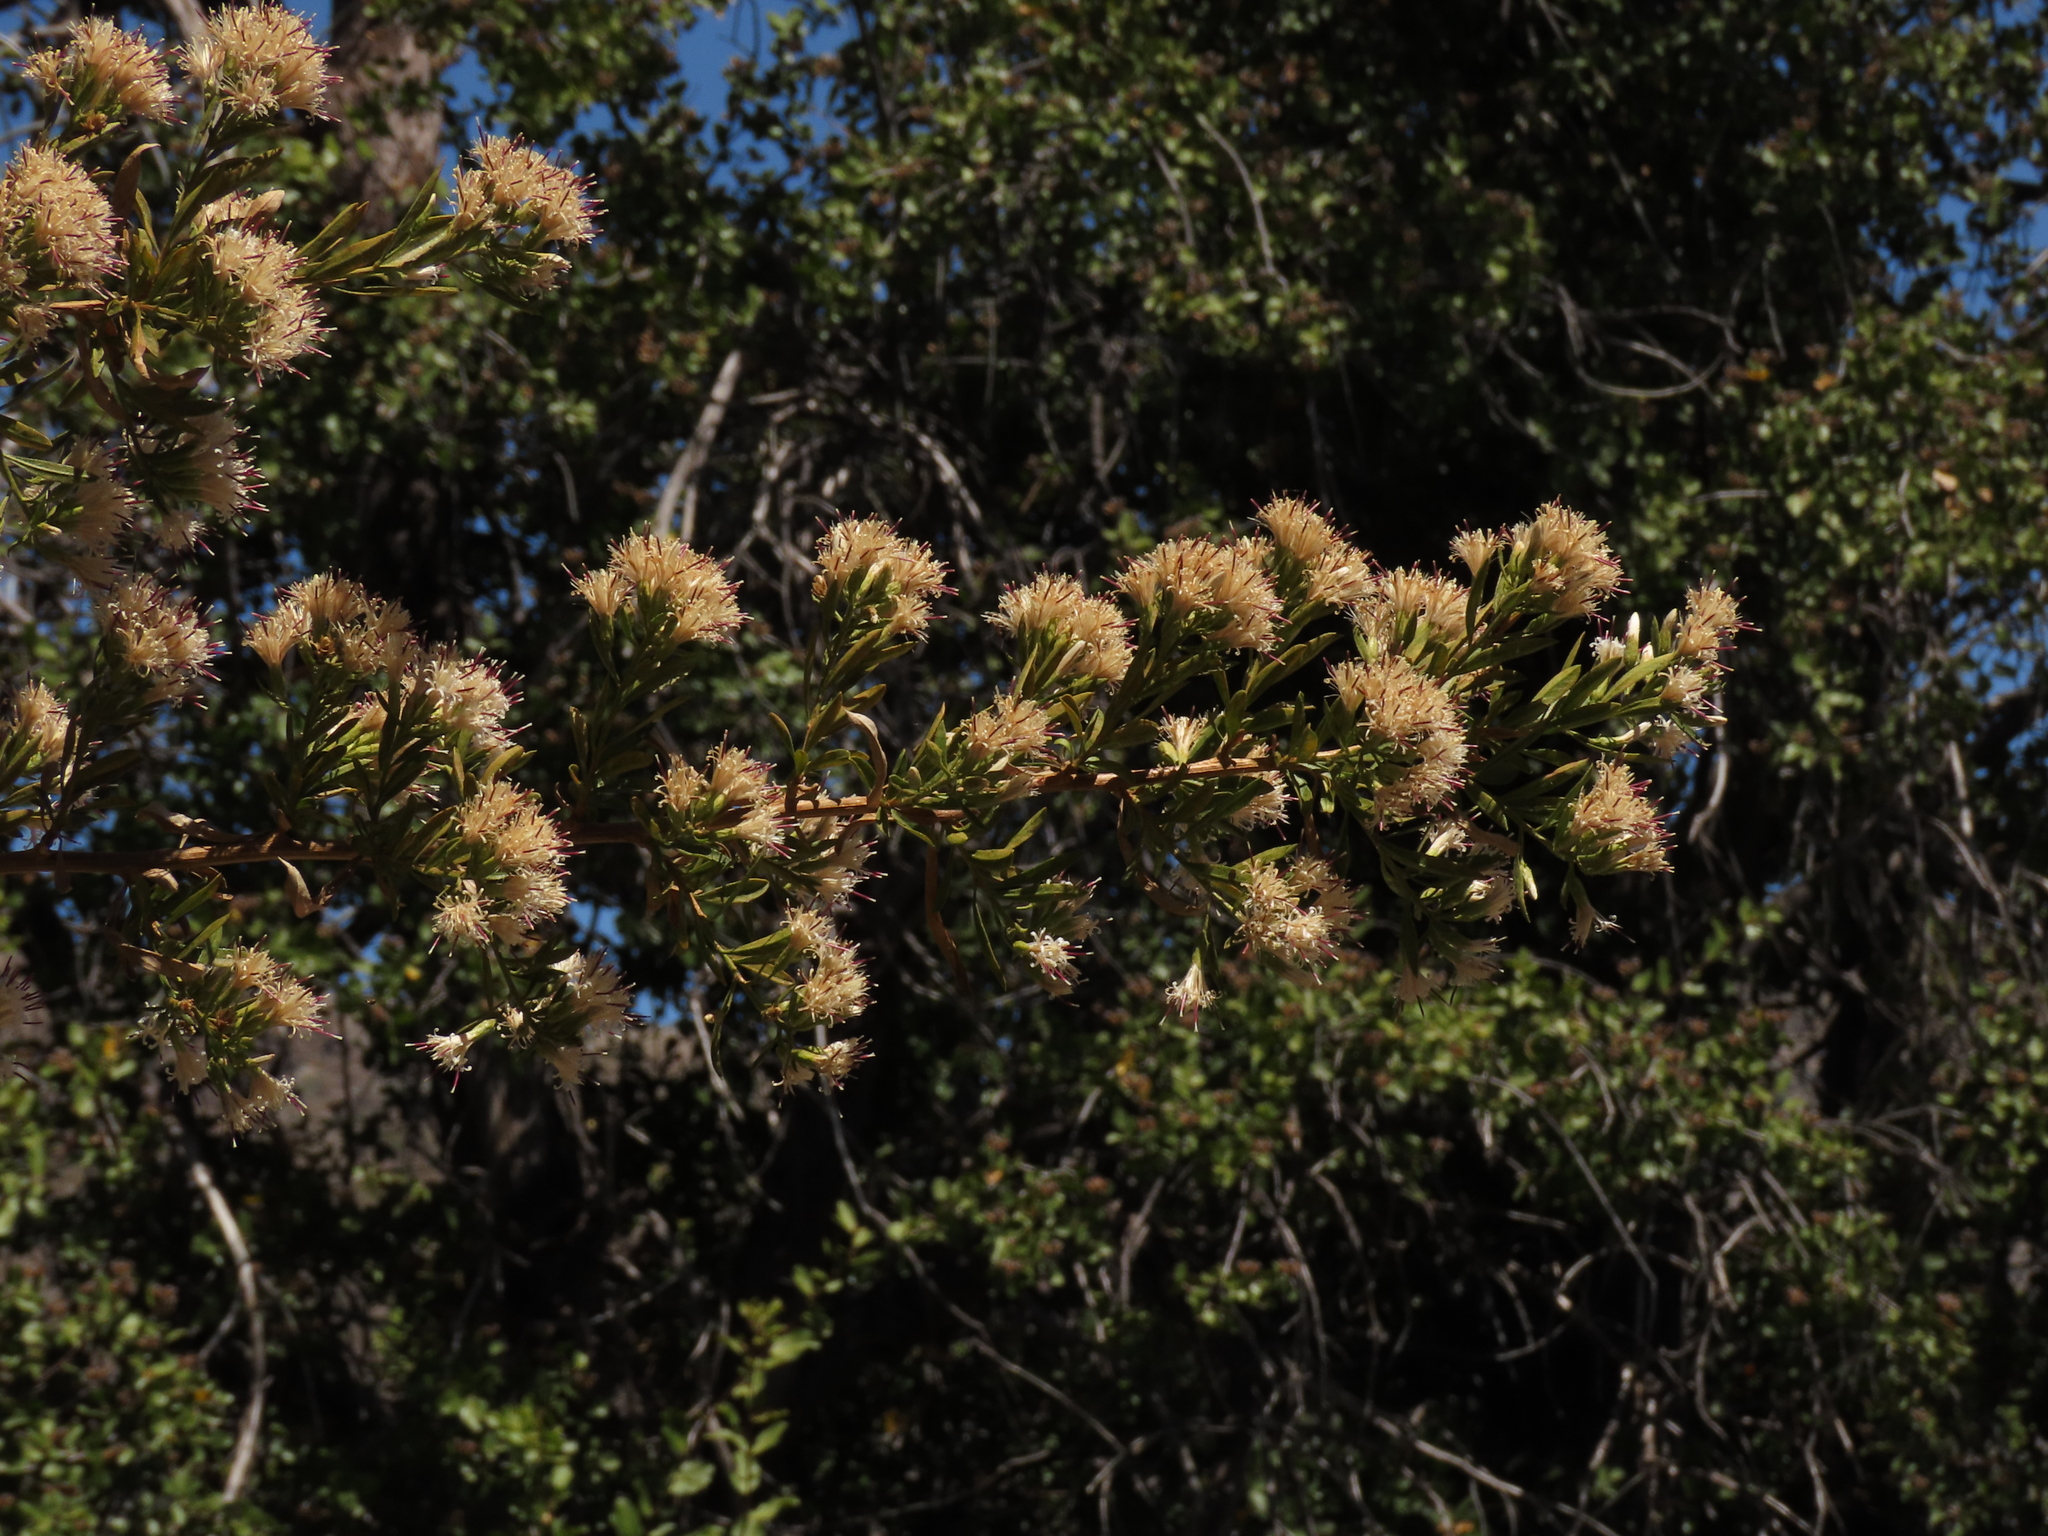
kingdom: Plantae
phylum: Tracheophyta
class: Magnoliopsida
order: Asterales
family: Asteraceae
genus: Gochnatia
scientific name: Gochnatia foliolosa
